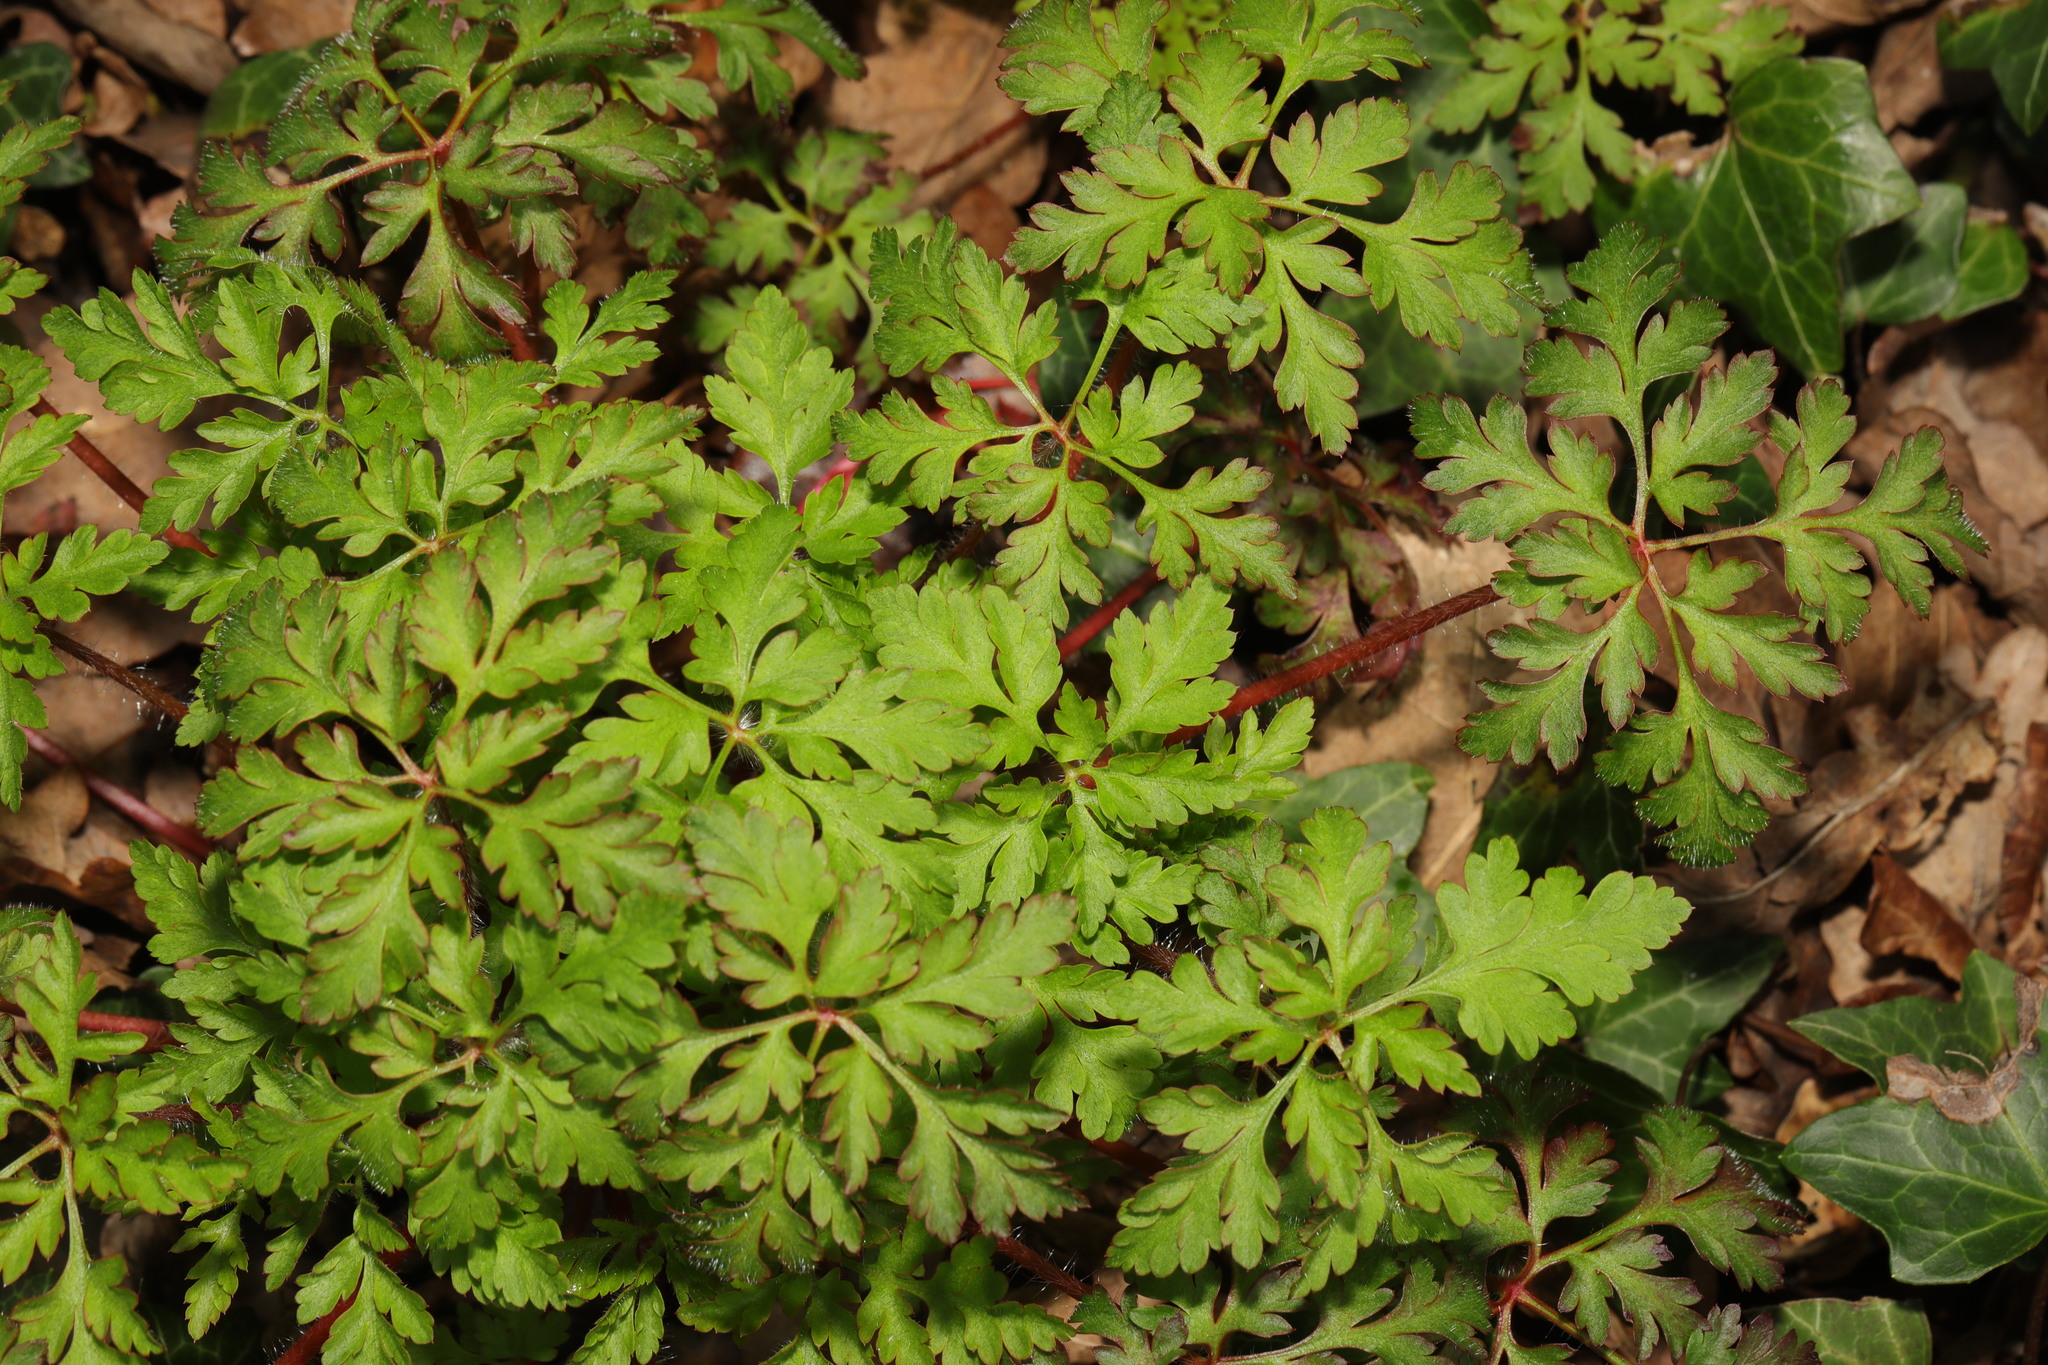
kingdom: Plantae
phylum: Tracheophyta
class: Magnoliopsida
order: Geraniales
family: Geraniaceae
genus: Geranium
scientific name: Geranium robertianum
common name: Herb-robert
